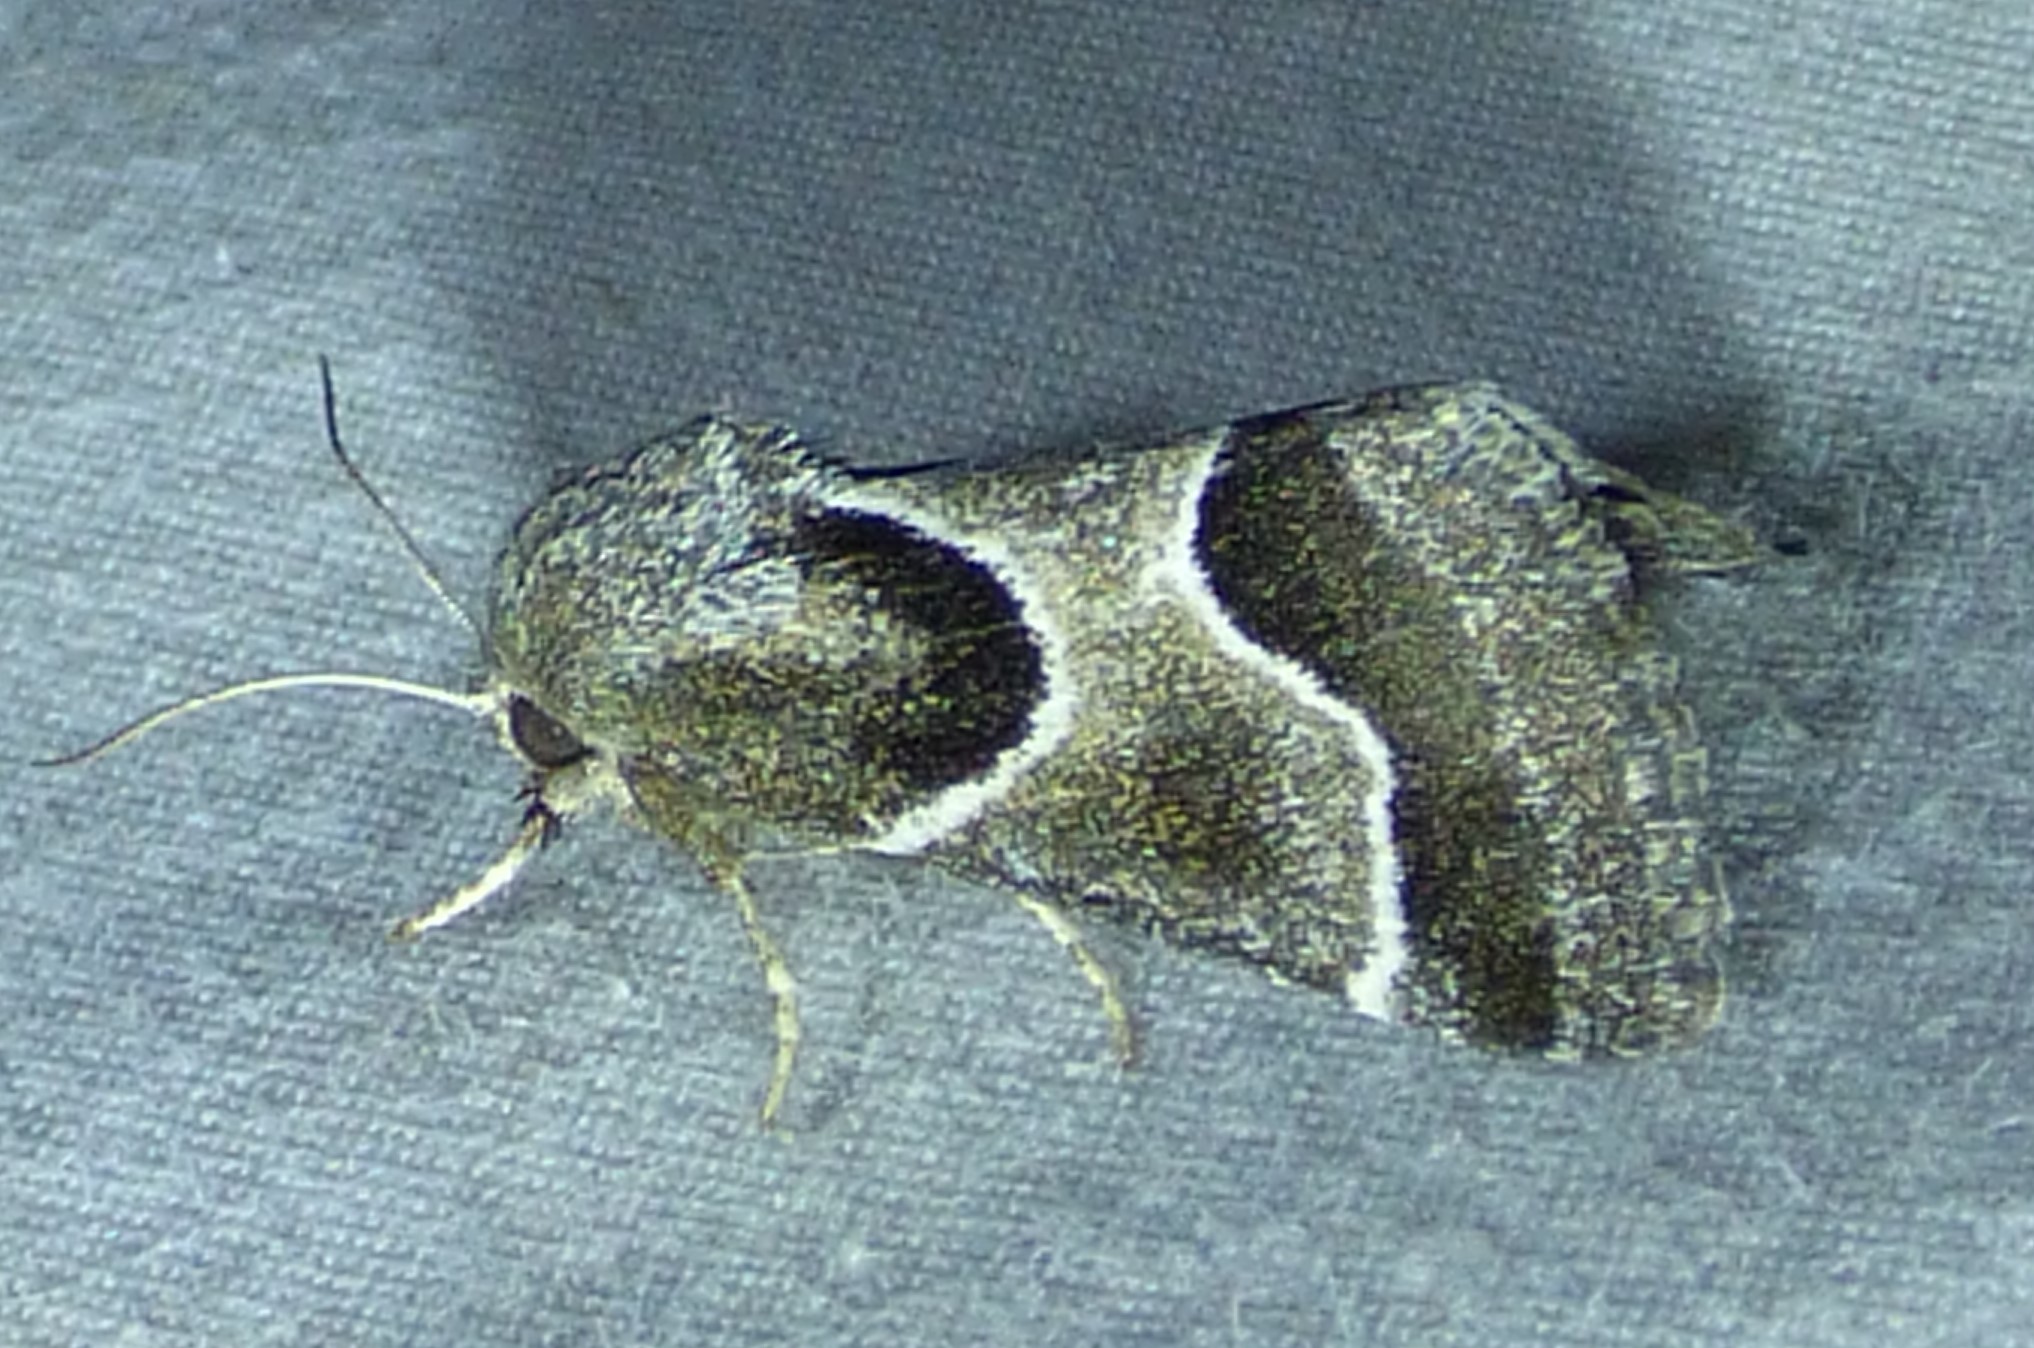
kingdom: Animalia
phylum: Arthropoda
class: Insecta
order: Lepidoptera
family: Noctuidae
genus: Schinia
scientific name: Schinia rivulosa
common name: Scarce meal-moth
